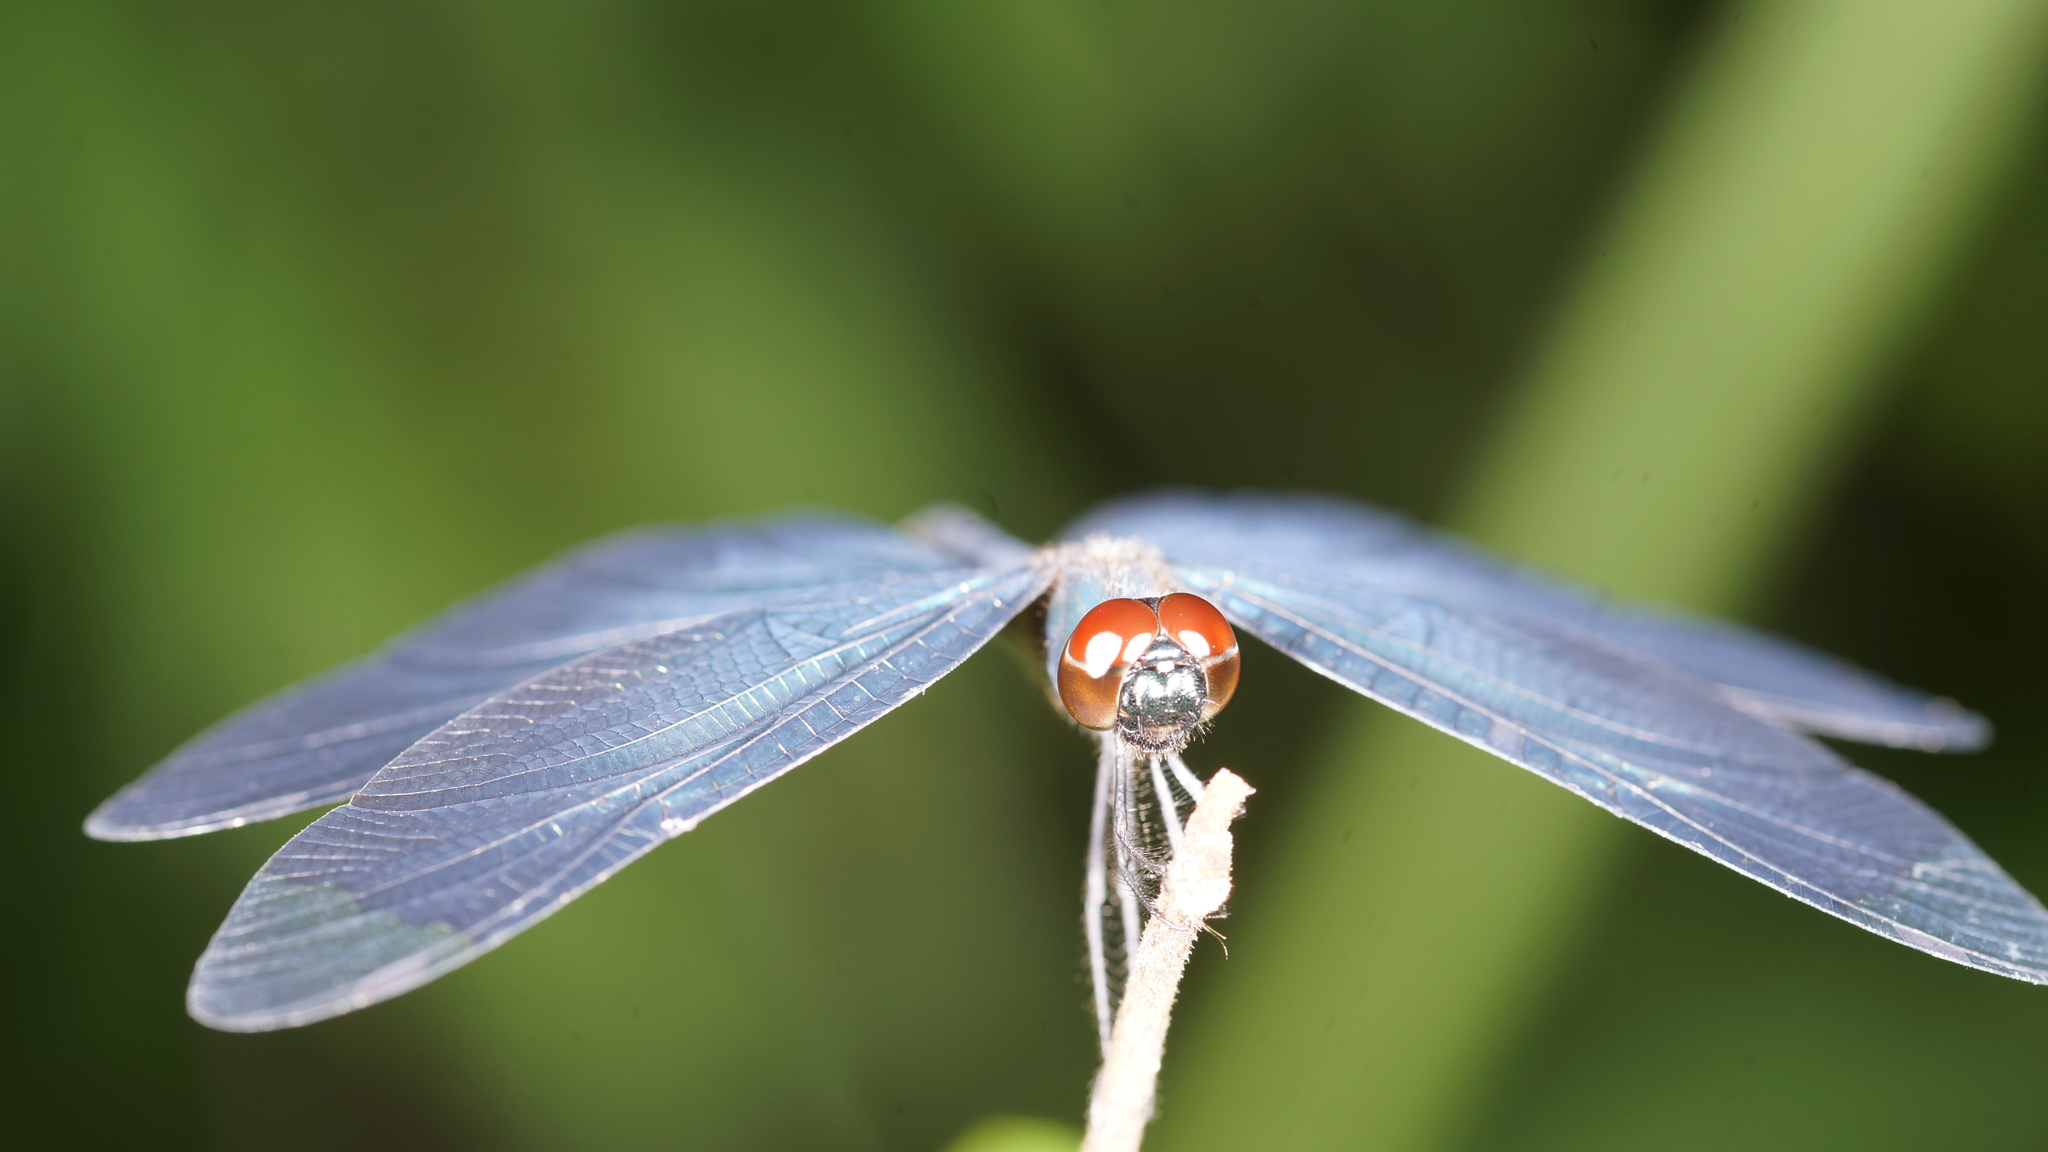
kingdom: Animalia
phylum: Arthropoda
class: Insecta
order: Odonata
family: Libellulidae
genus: Rhyothemis
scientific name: Rhyothemis plutonia
